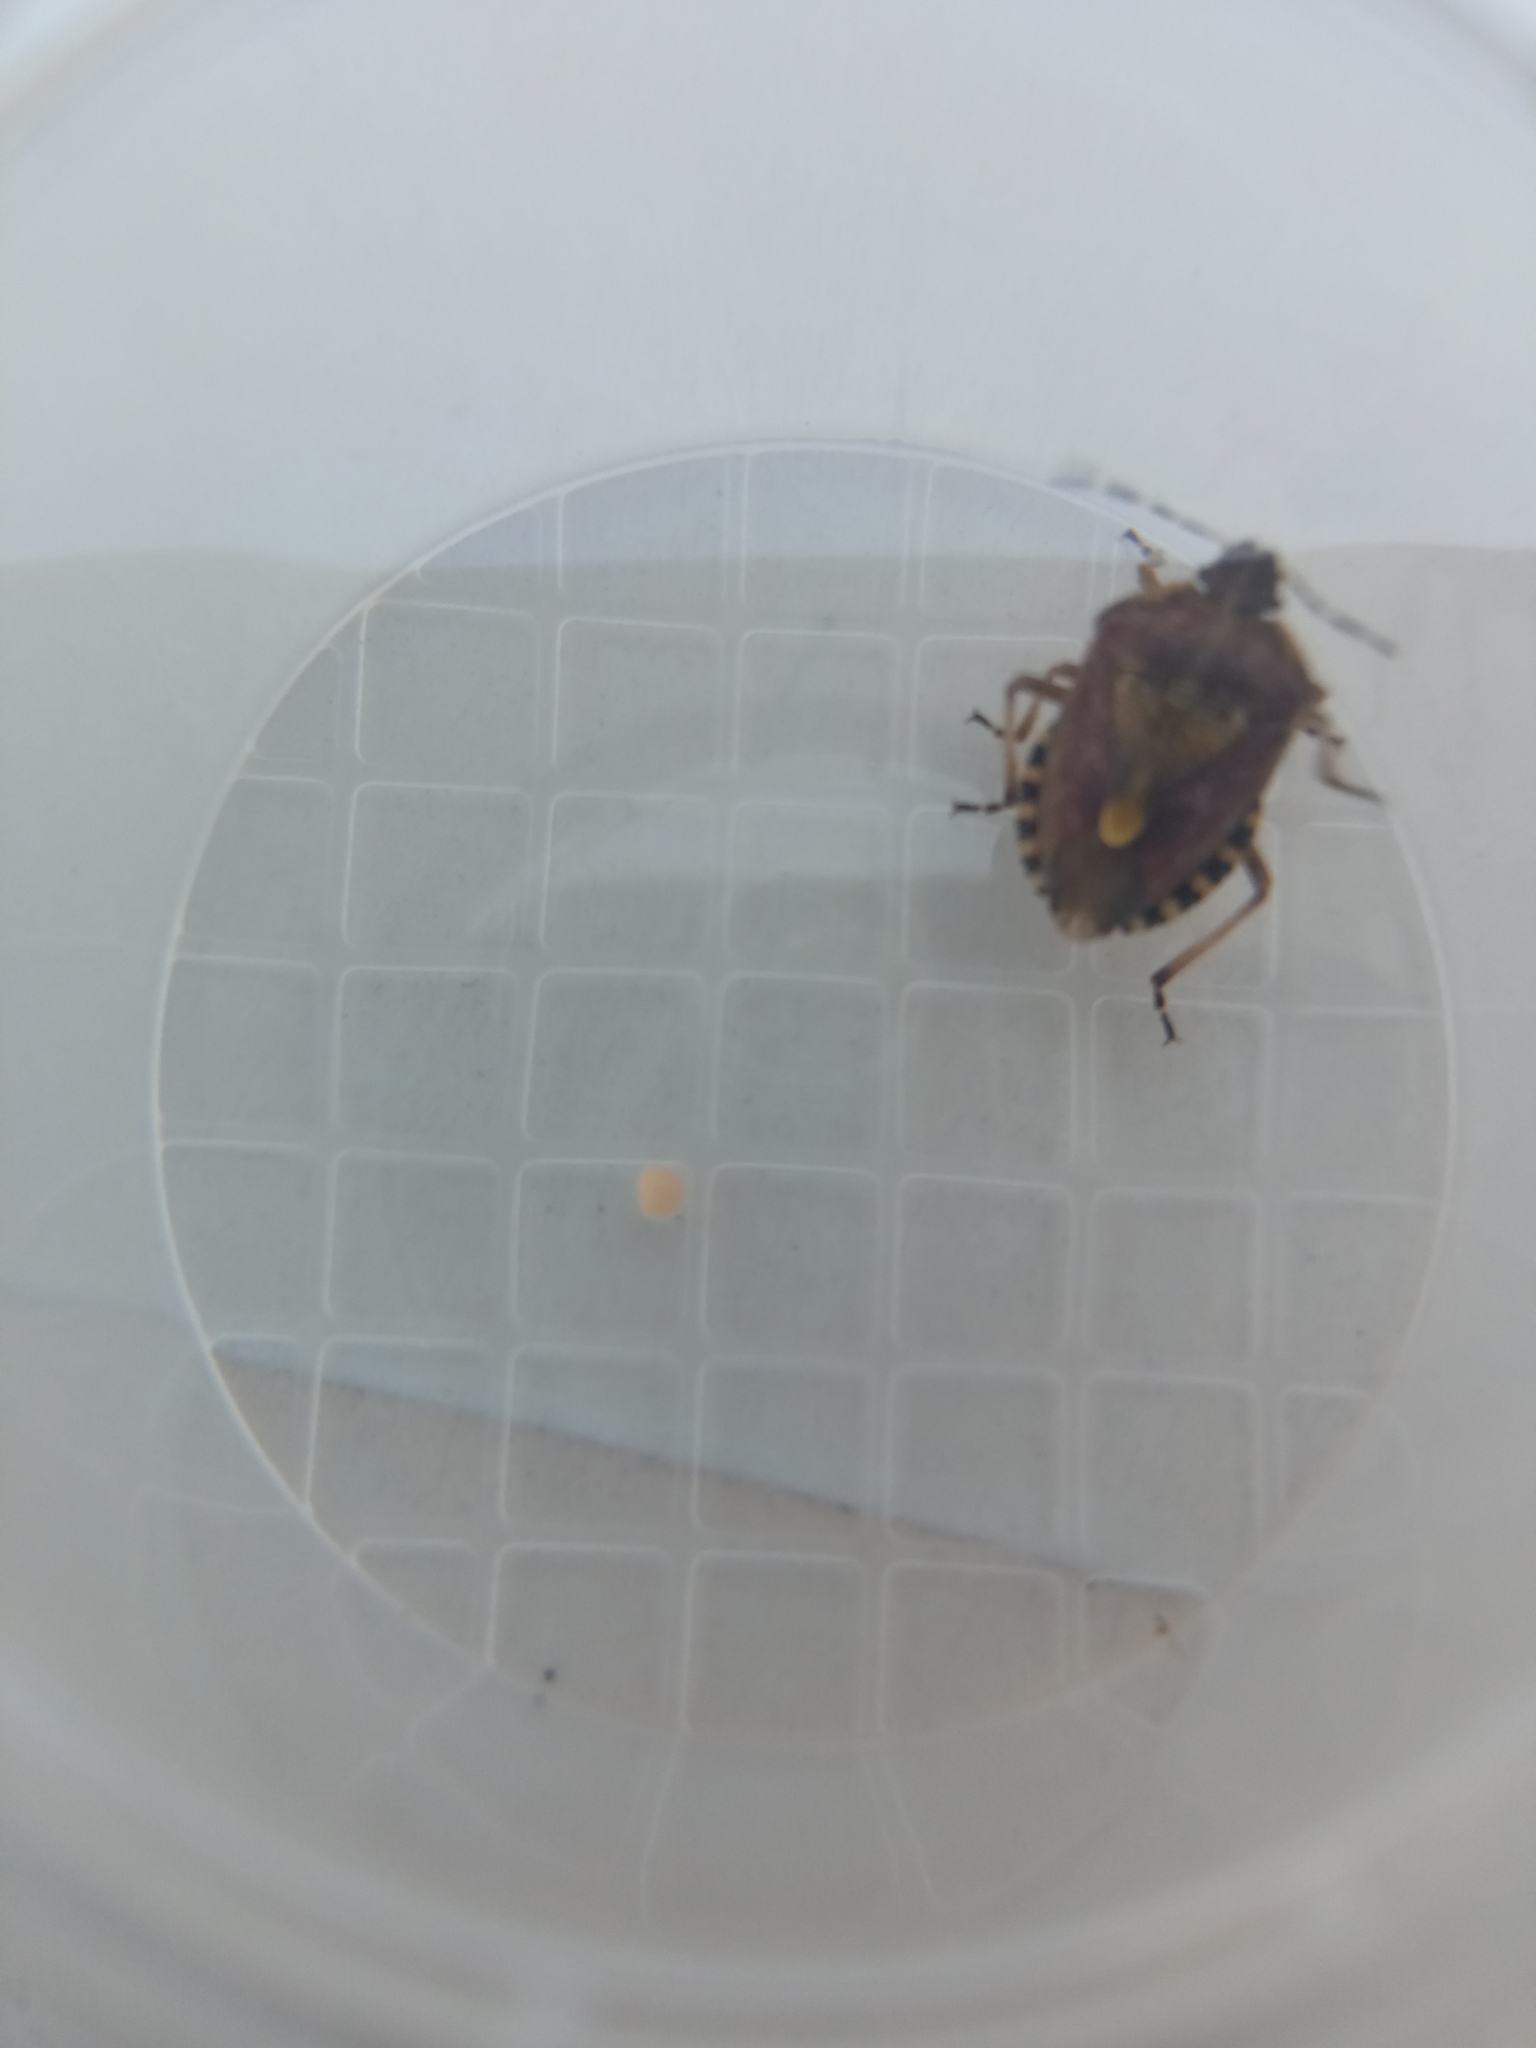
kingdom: Animalia
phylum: Arthropoda
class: Insecta
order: Hemiptera
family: Pentatomidae
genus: Dolycoris
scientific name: Dolycoris baccarum
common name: Sloe bug
